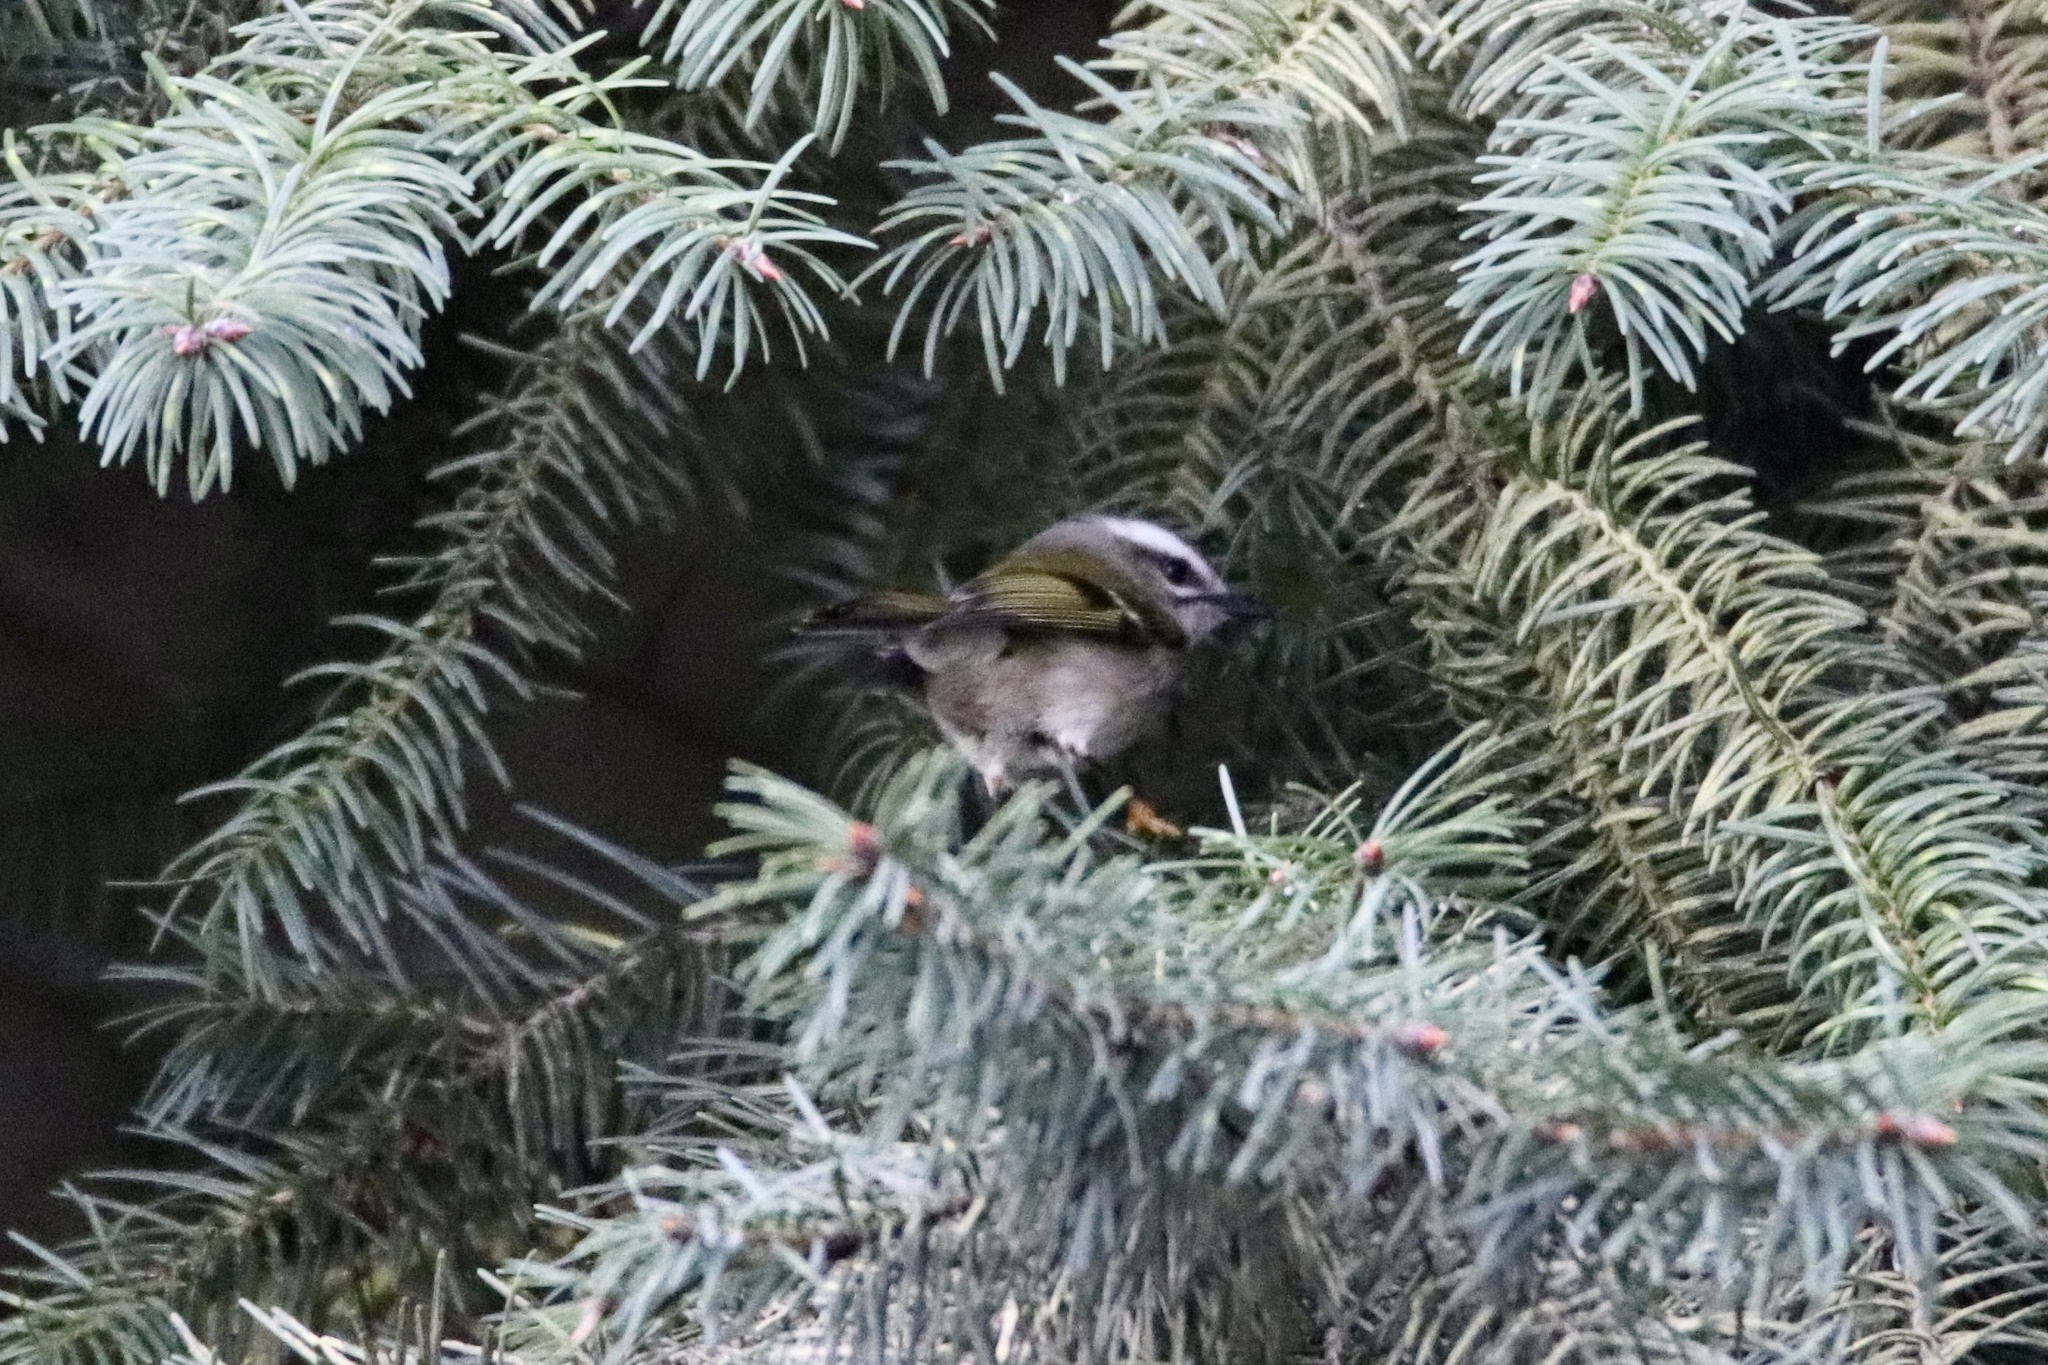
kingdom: Animalia
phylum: Chordata
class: Aves
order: Passeriformes
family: Regulidae
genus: Regulus
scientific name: Regulus satrapa
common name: Golden-crowned kinglet
